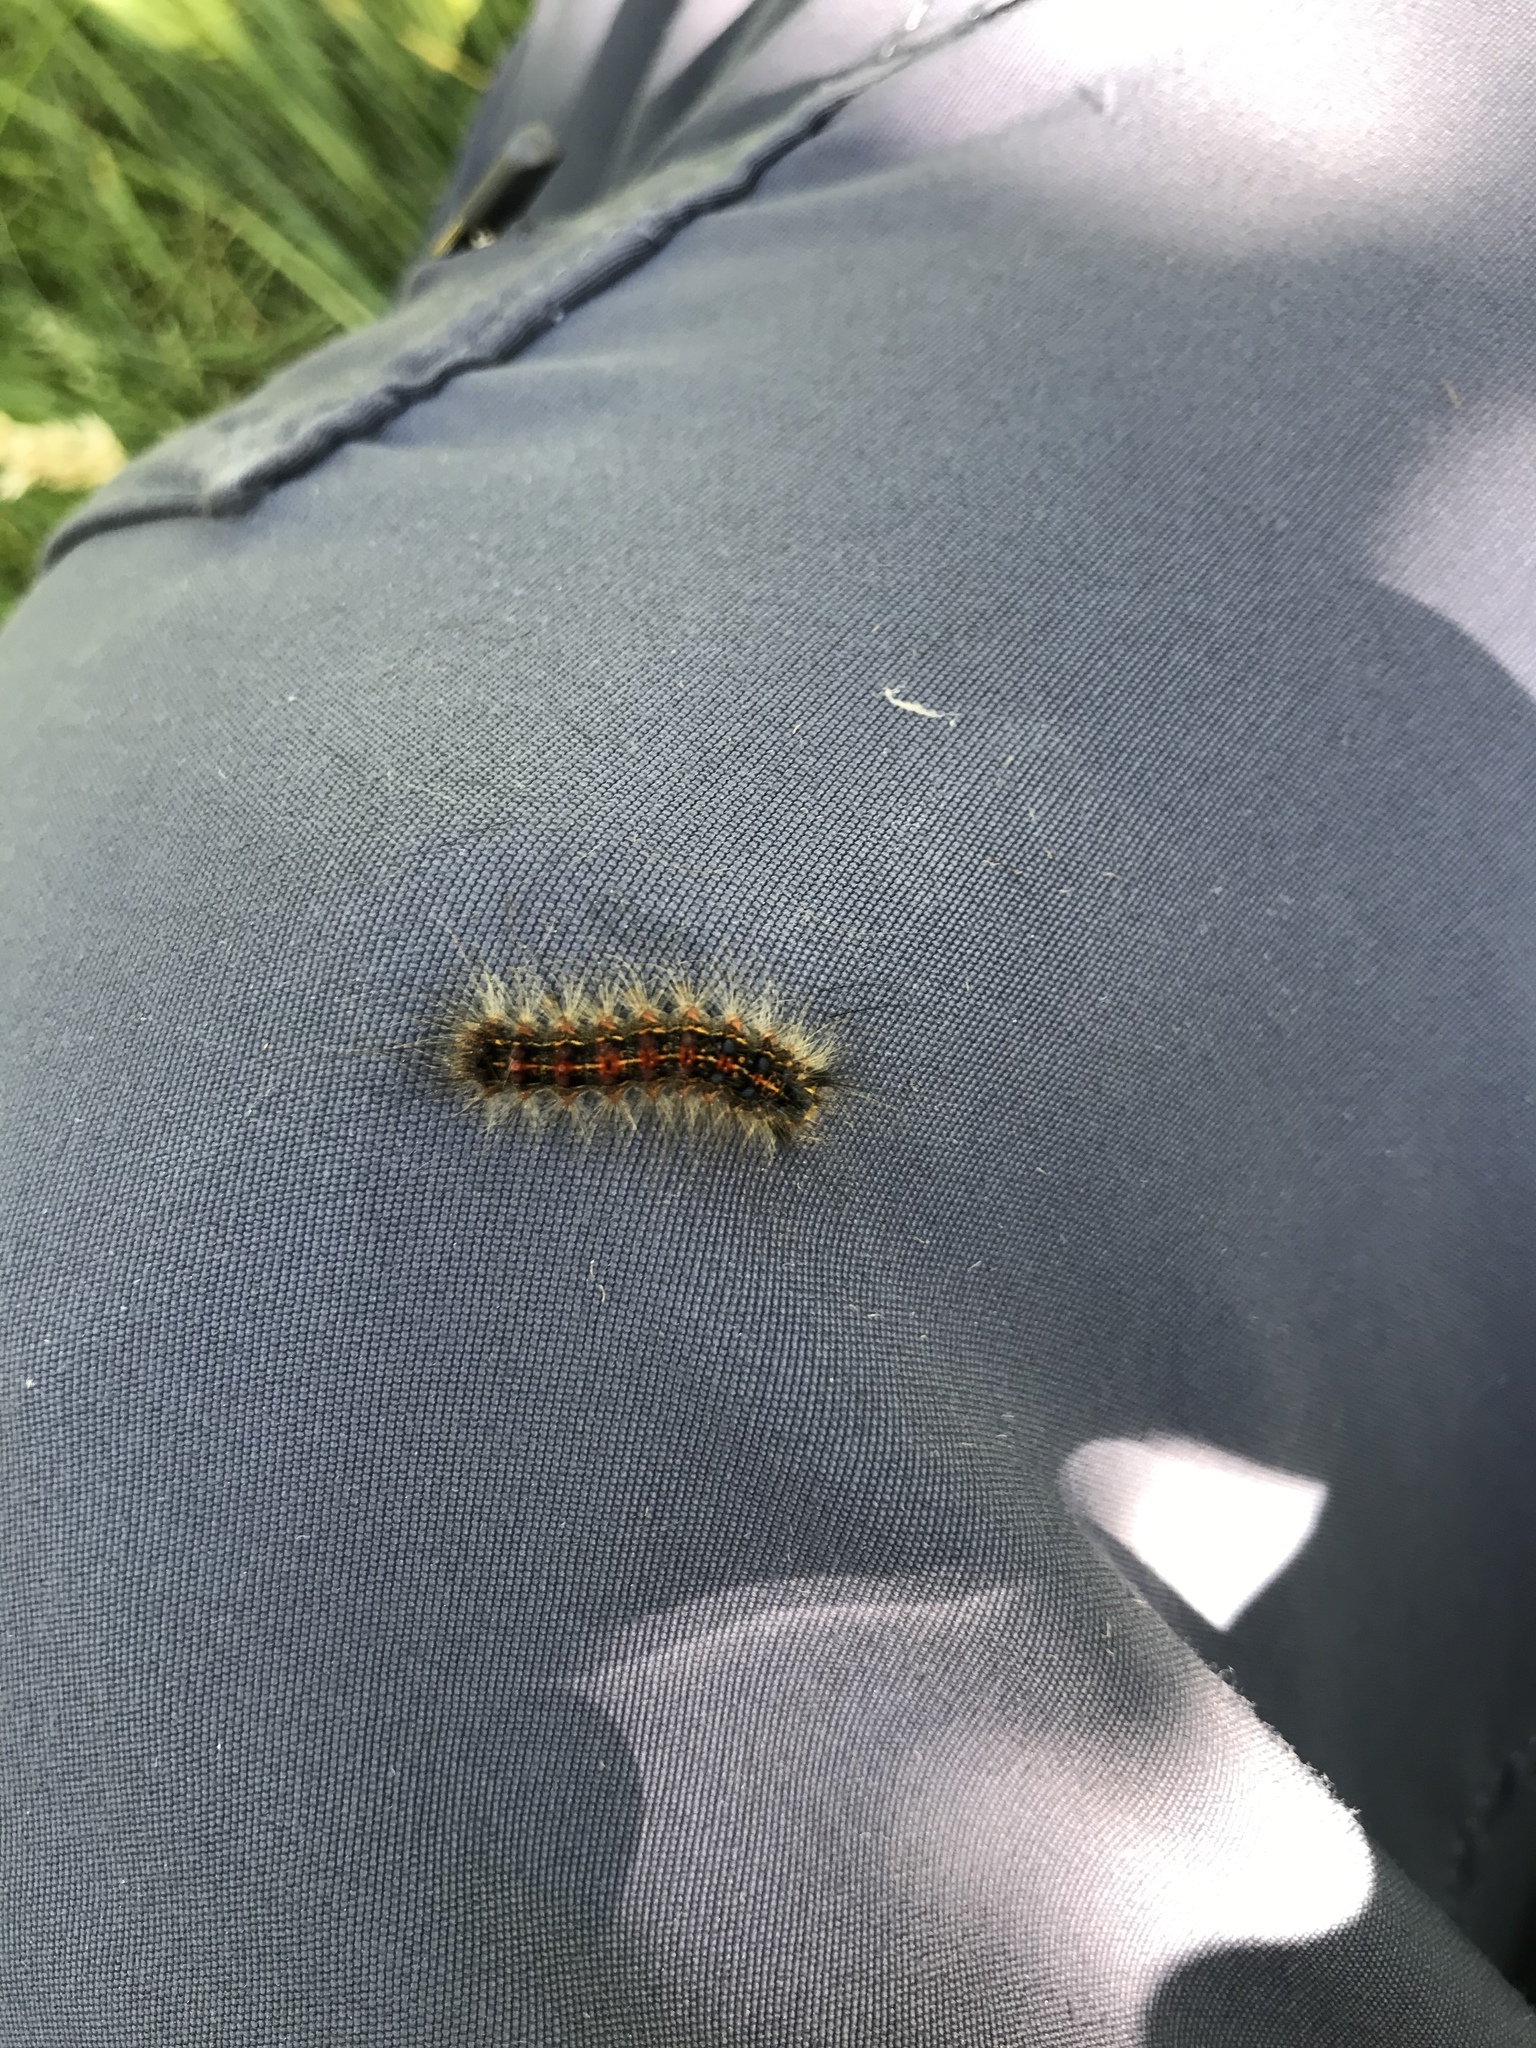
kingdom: Animalia
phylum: Arthropoda
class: Insecta
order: Lepidoptera
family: Erebidae
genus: Lymantria
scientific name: Lymantria dispar
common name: Gypsy moth
